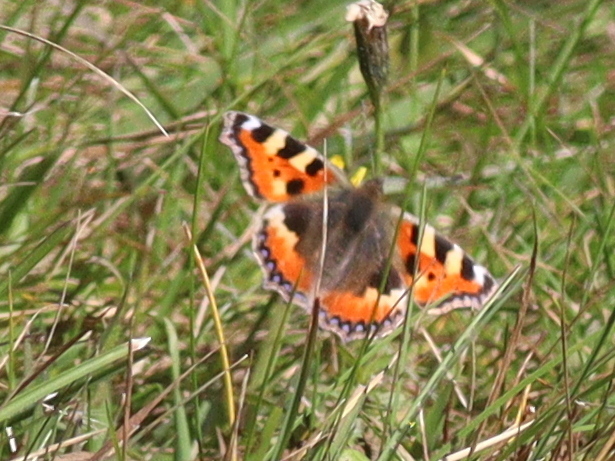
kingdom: Animalia
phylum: Arthropoda
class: Insecta
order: Lepidoptera
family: Nymphalidae
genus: Aglais
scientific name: Aglais urticae
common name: Small tortoiseshell
